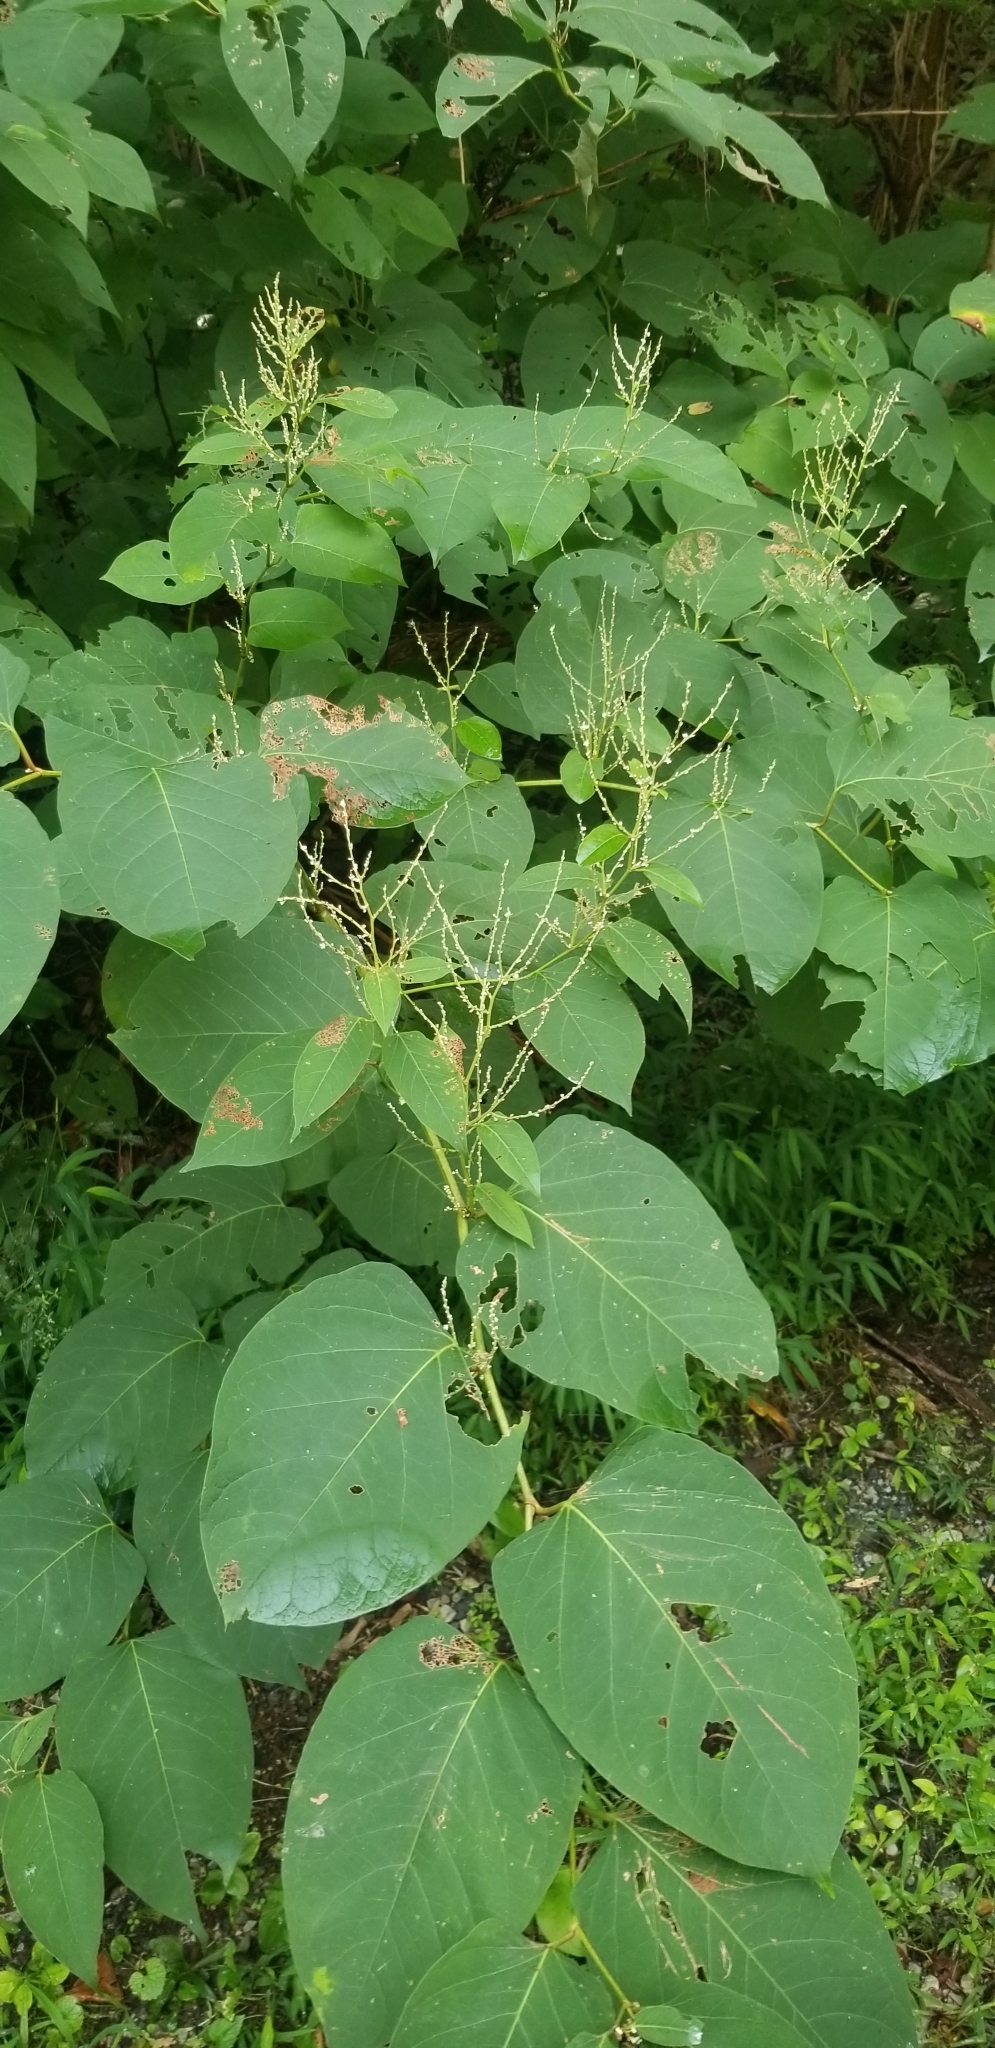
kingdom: Plantae
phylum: Tracheophyta
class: Magnoliopsida
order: Caryophyllales
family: Polygonaceae
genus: Reynoutria
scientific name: Reynoutria japonica
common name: Japanese knotweed
